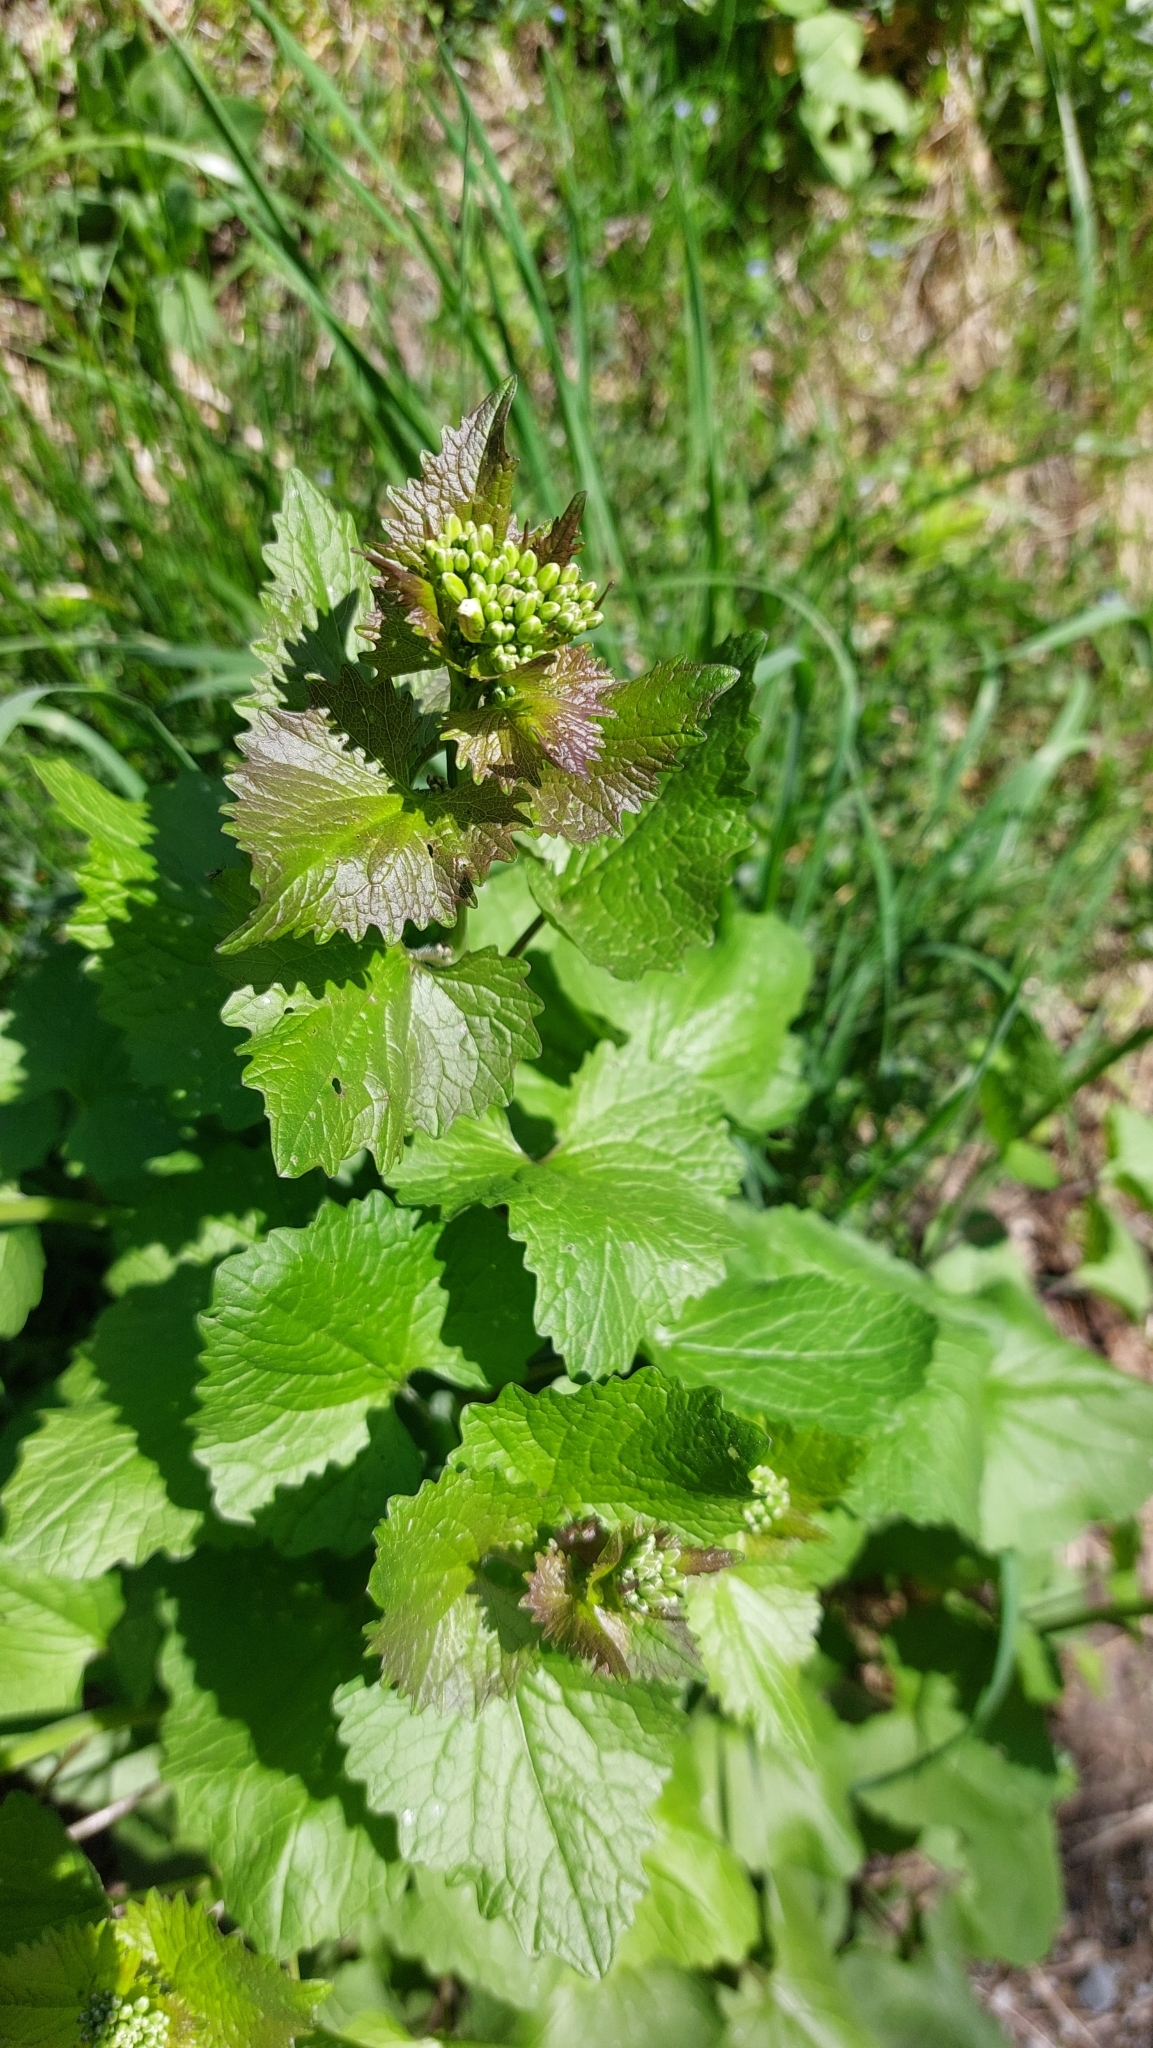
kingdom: Plantae
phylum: Tracheophyta
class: Magnoliopsida
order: Brassicales
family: Brassicaceae
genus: Alliaria
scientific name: Alliaria petiolata
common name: Garlic mustard
